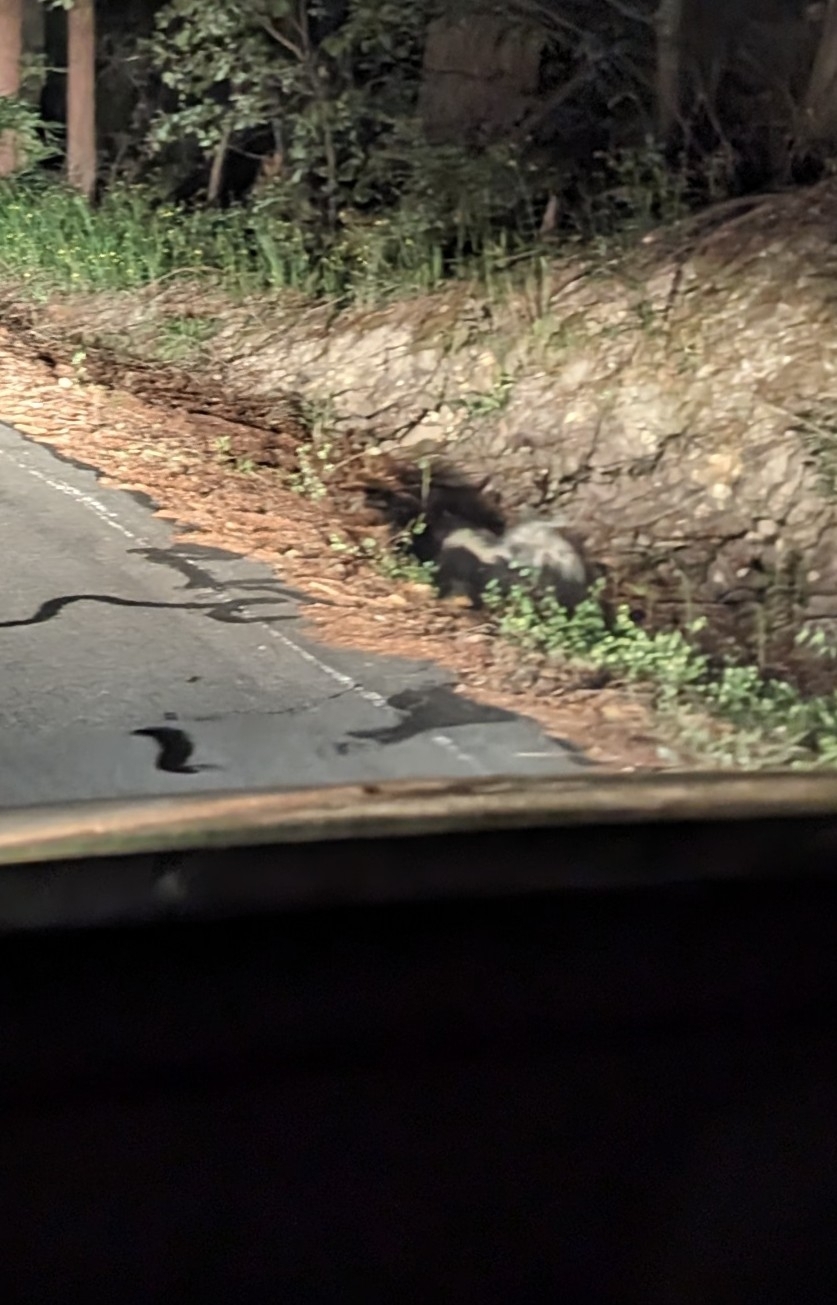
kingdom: Animalia
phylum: Chordata
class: Mammalia
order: Carnivora
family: Mephitidae
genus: Mephitis
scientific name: Mephitis mephitis
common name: Striped skunk
